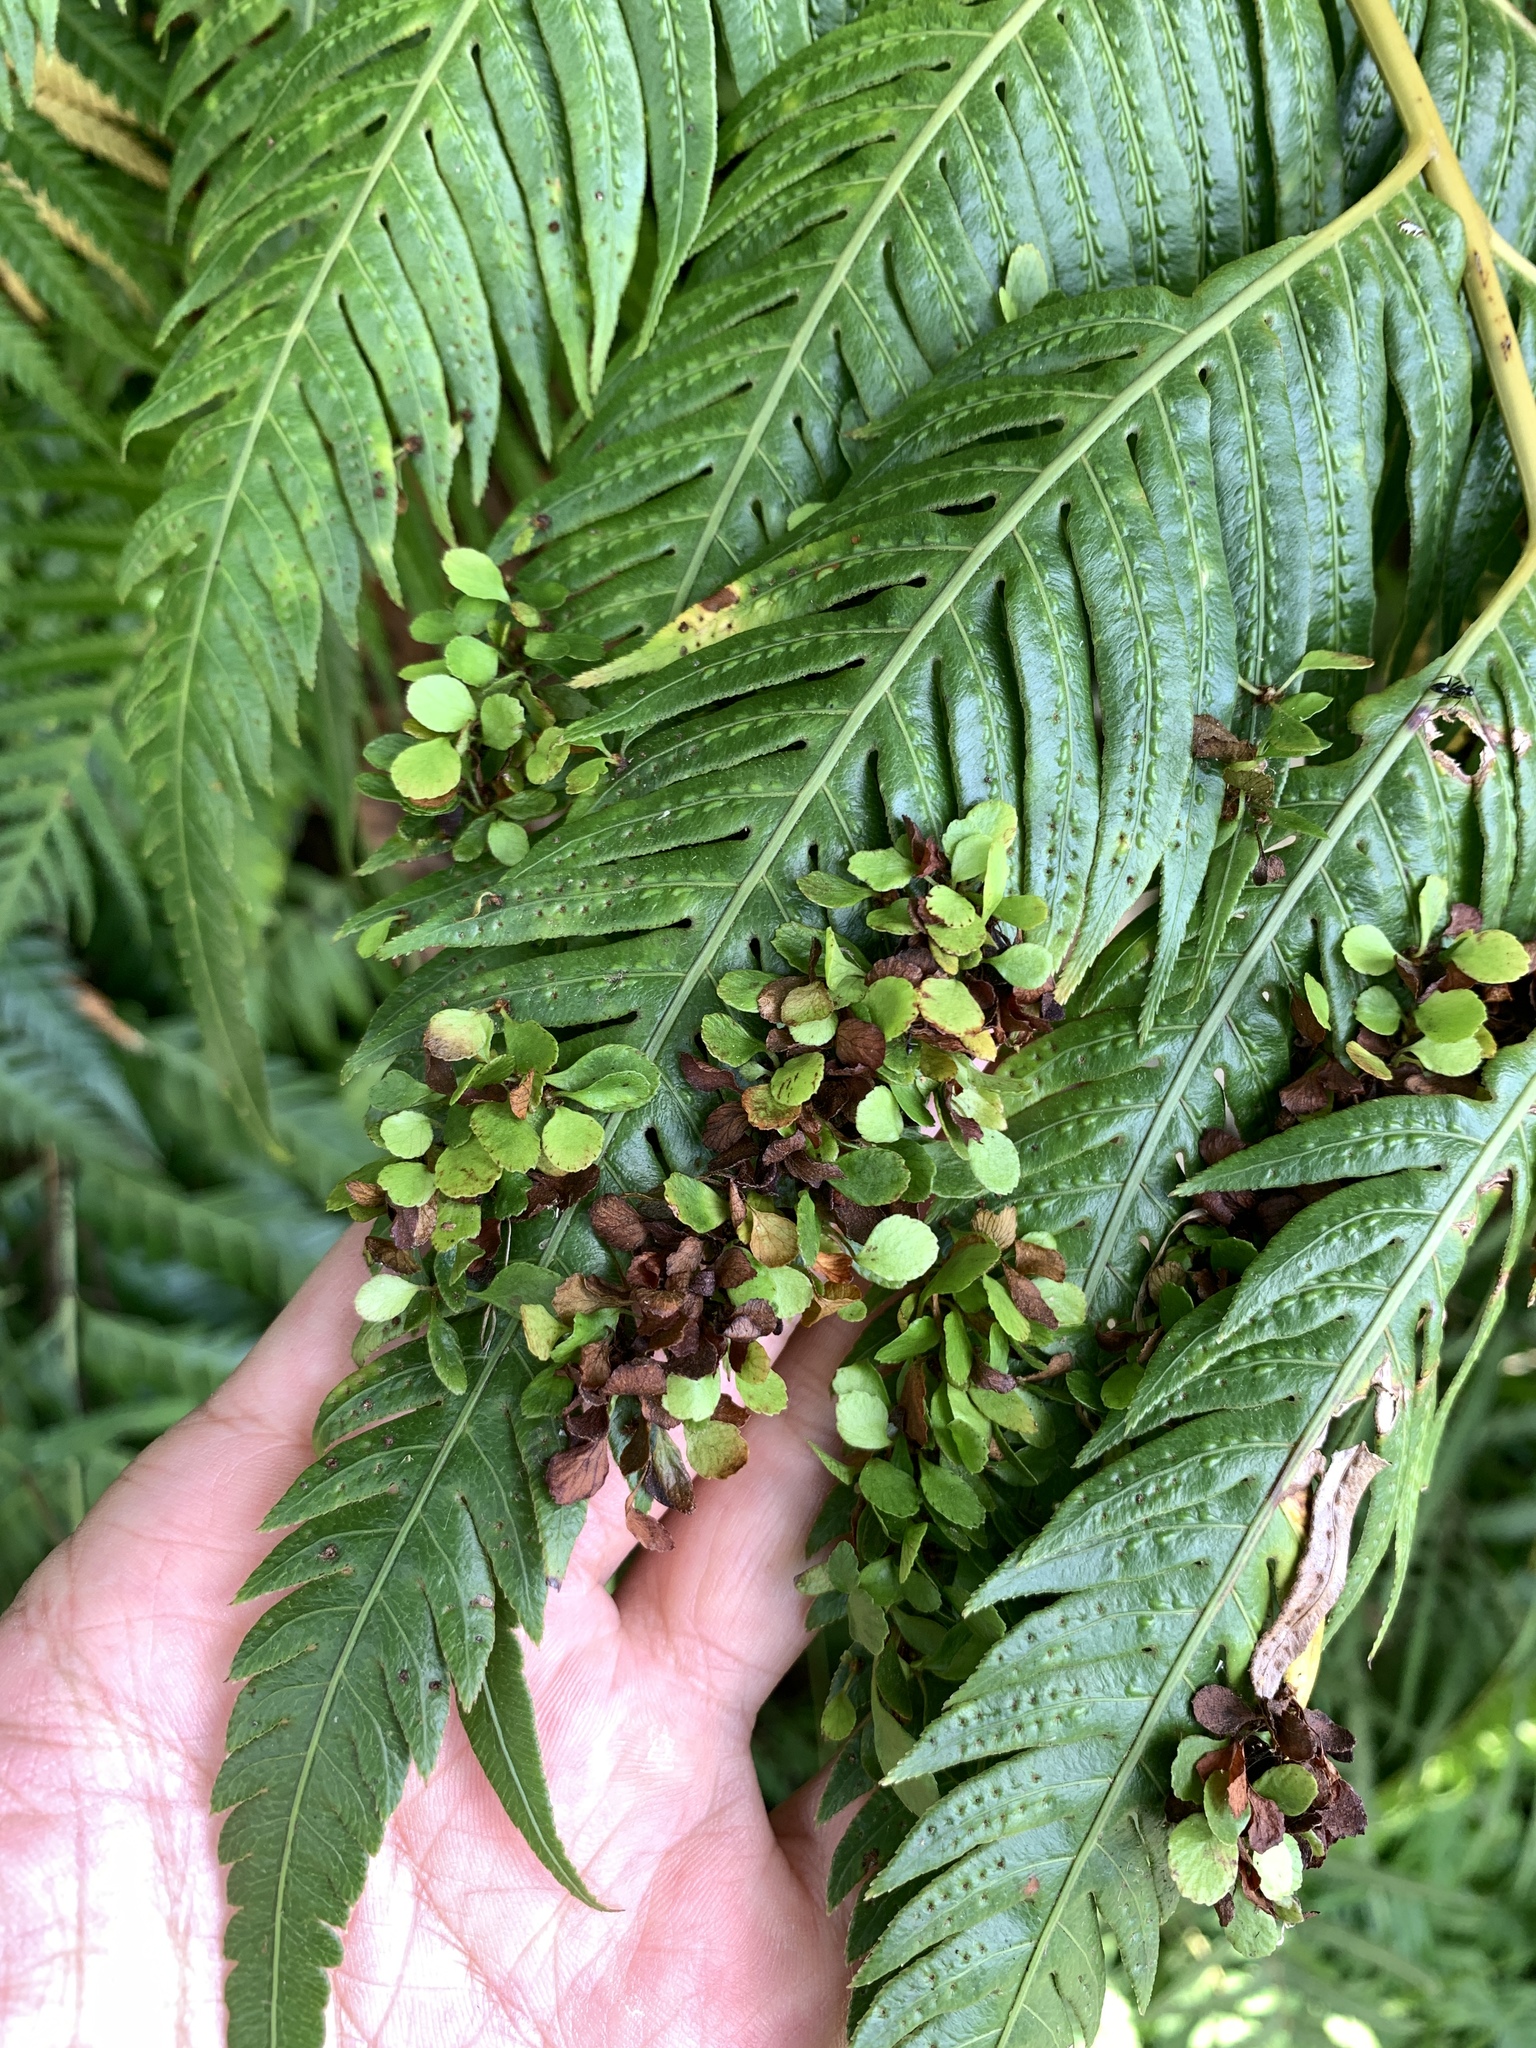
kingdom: Plantae
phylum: Tracheophyta
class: Polypodiopsida
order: Polypodiales
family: Blechnaceae
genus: Woodwardia
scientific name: Woodwardia prolifera
